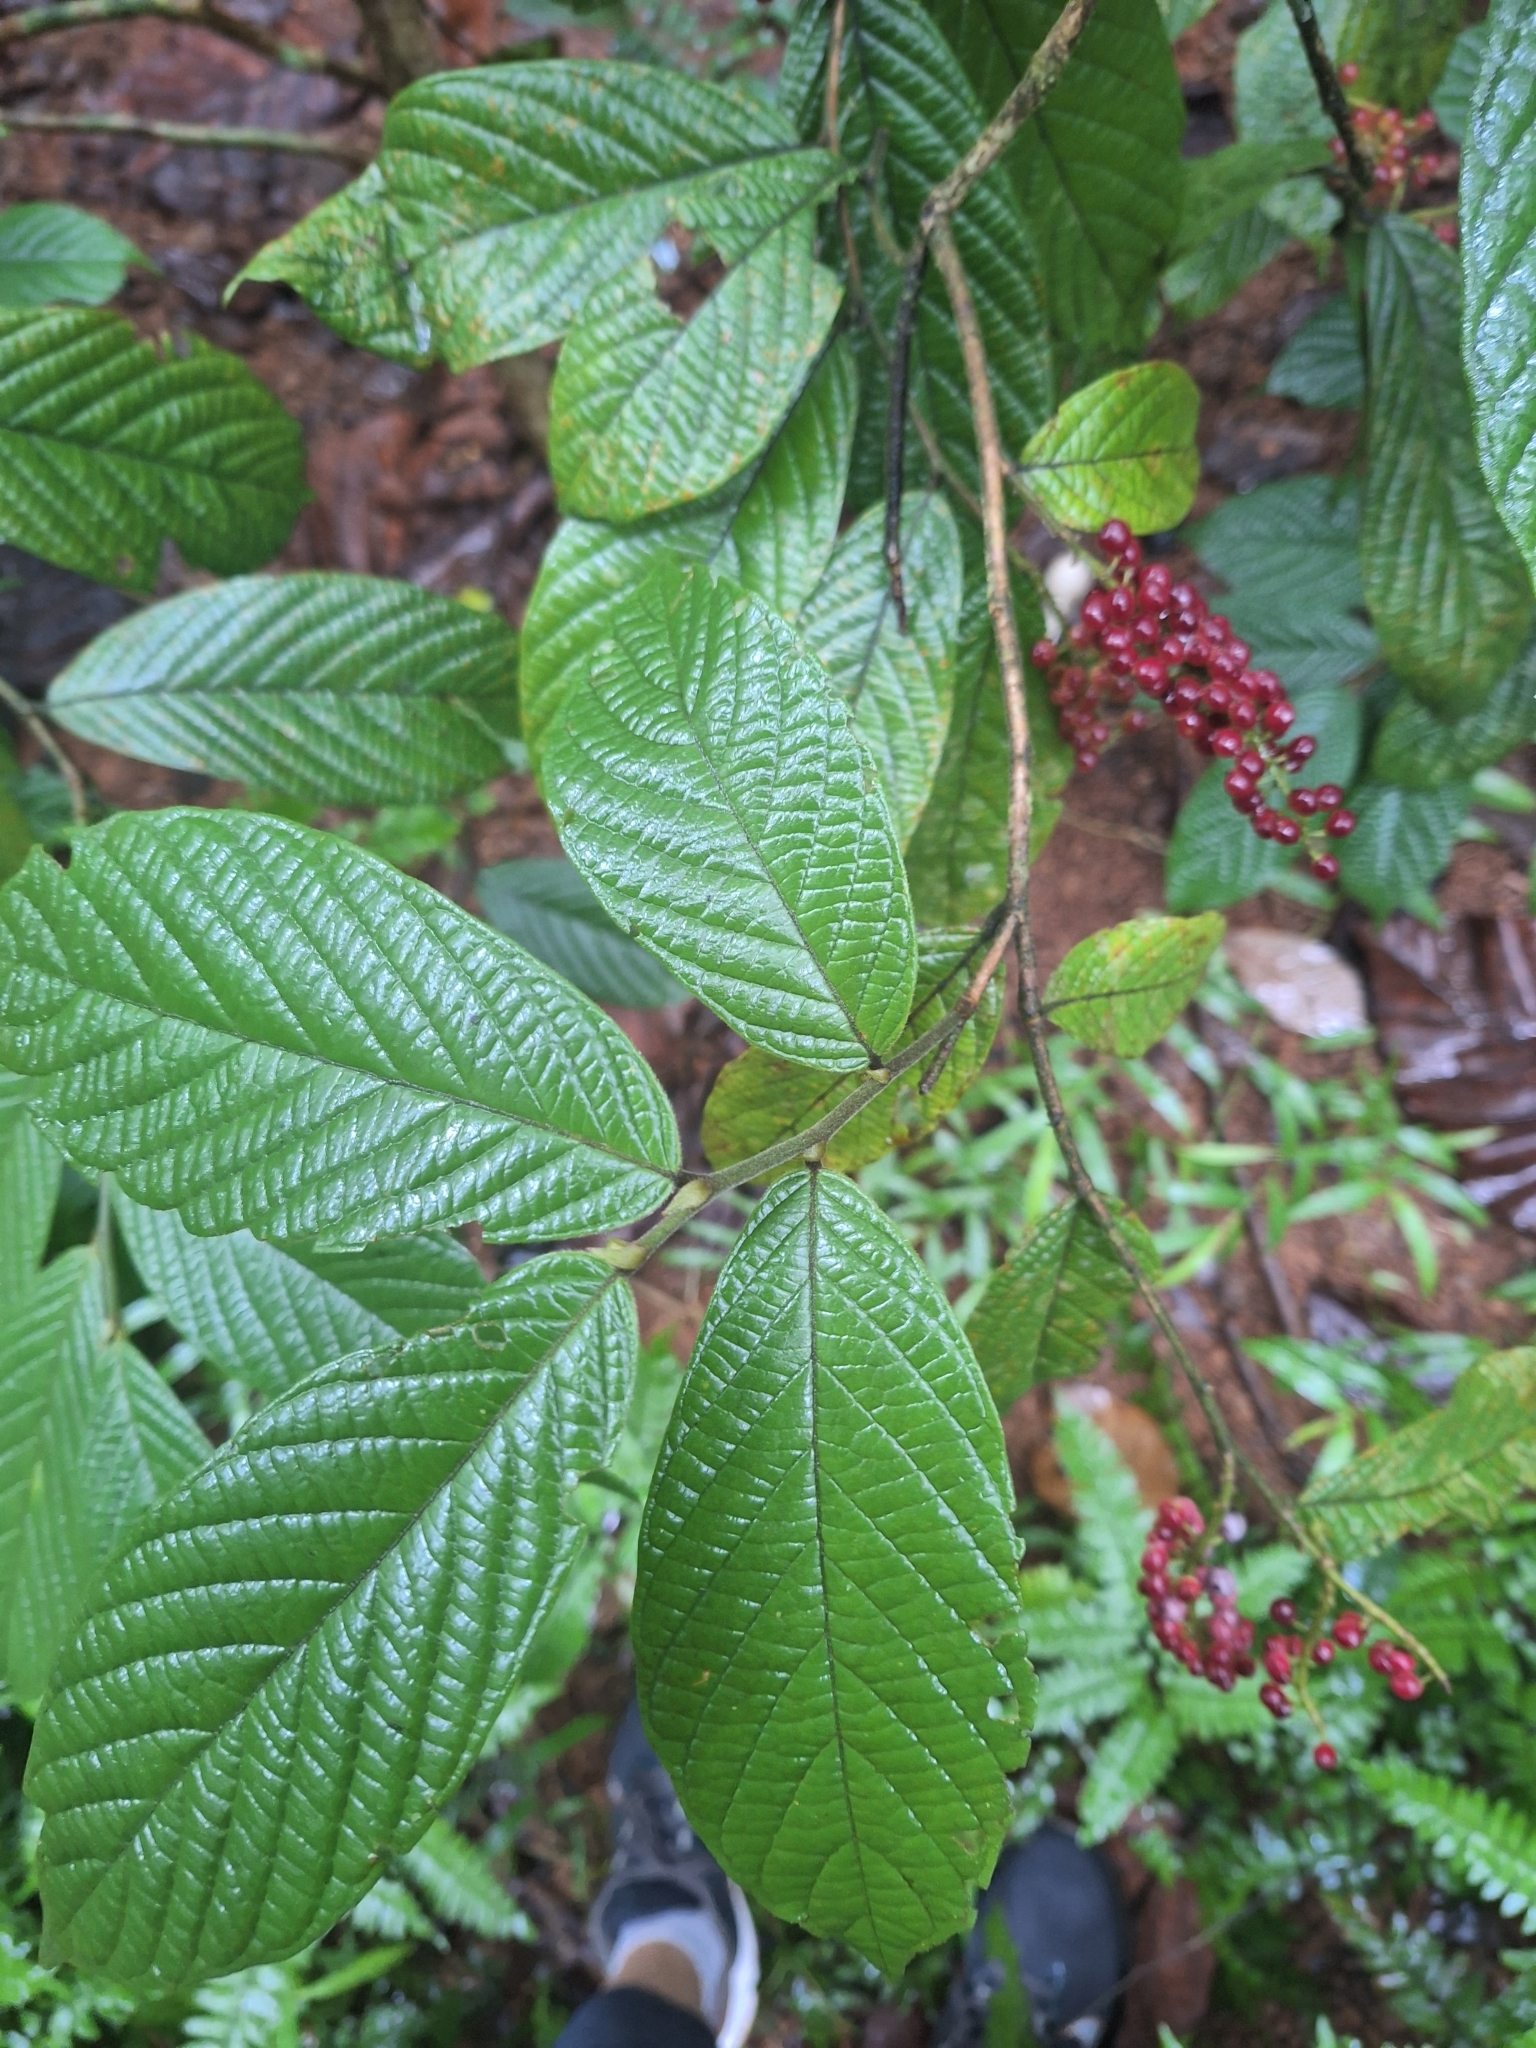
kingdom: Plantae
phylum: Tracheophyta
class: Magnoliopsida
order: Malpighiales
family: Phyllanthaceae
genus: Antidesma
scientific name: Antidesma velutinosum
